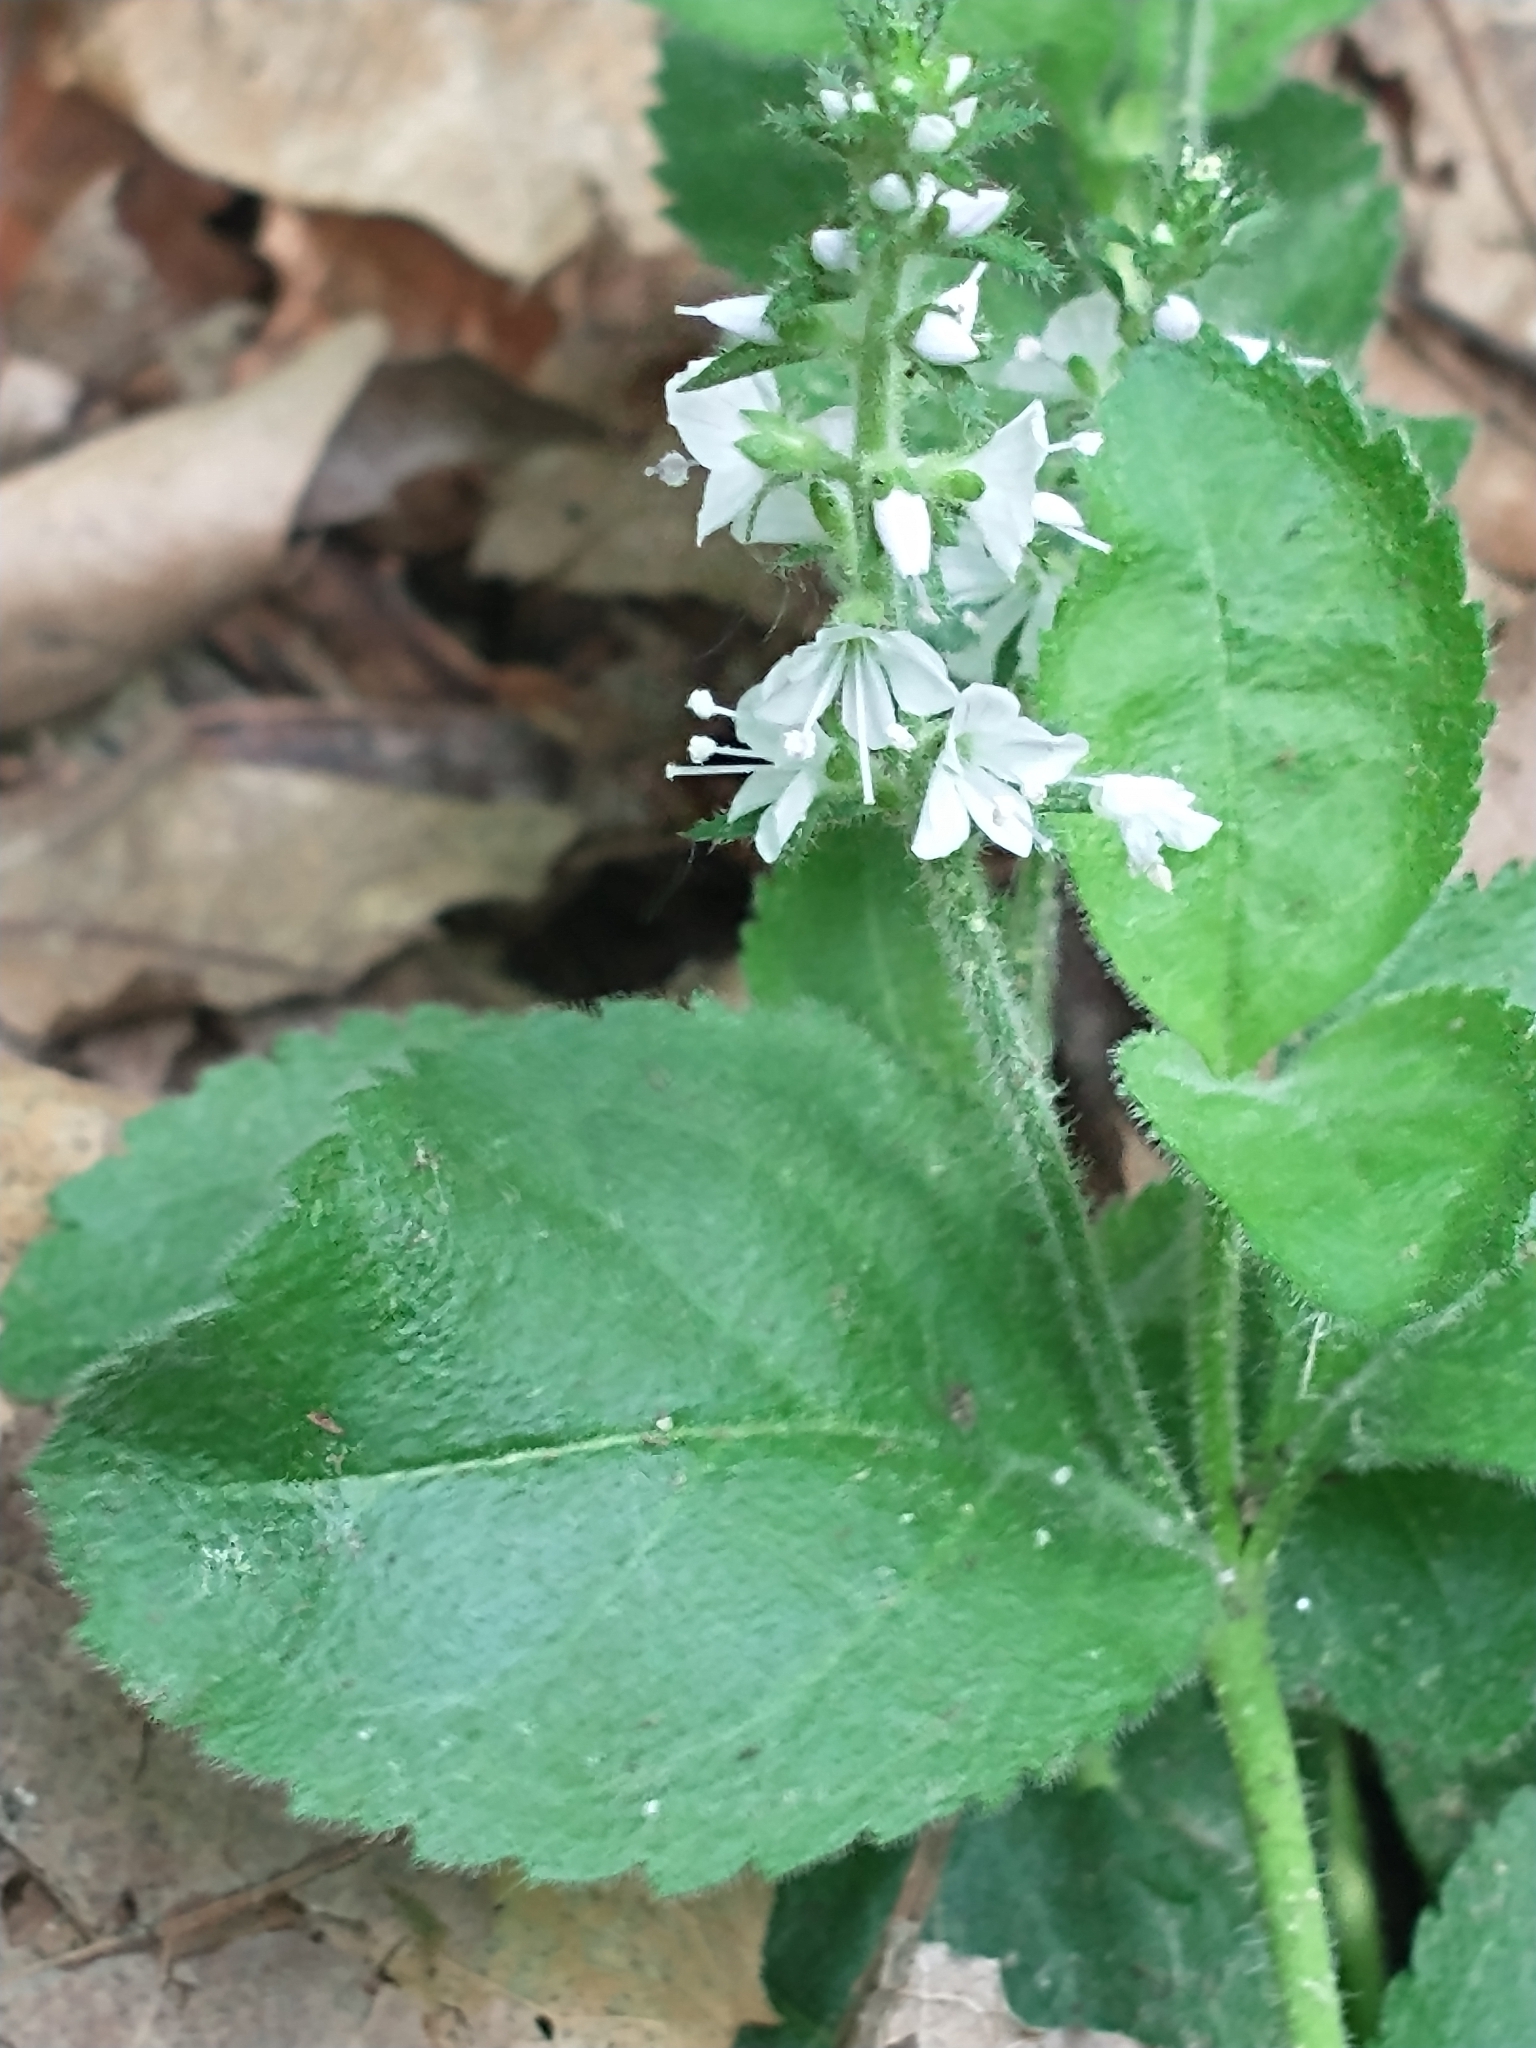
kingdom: Plantae
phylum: Tracheophyta
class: Magnoliopsida
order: Lamiales
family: Plantaginaceae
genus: Veronica
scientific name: Veronica officinalis
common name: Common speedwell
